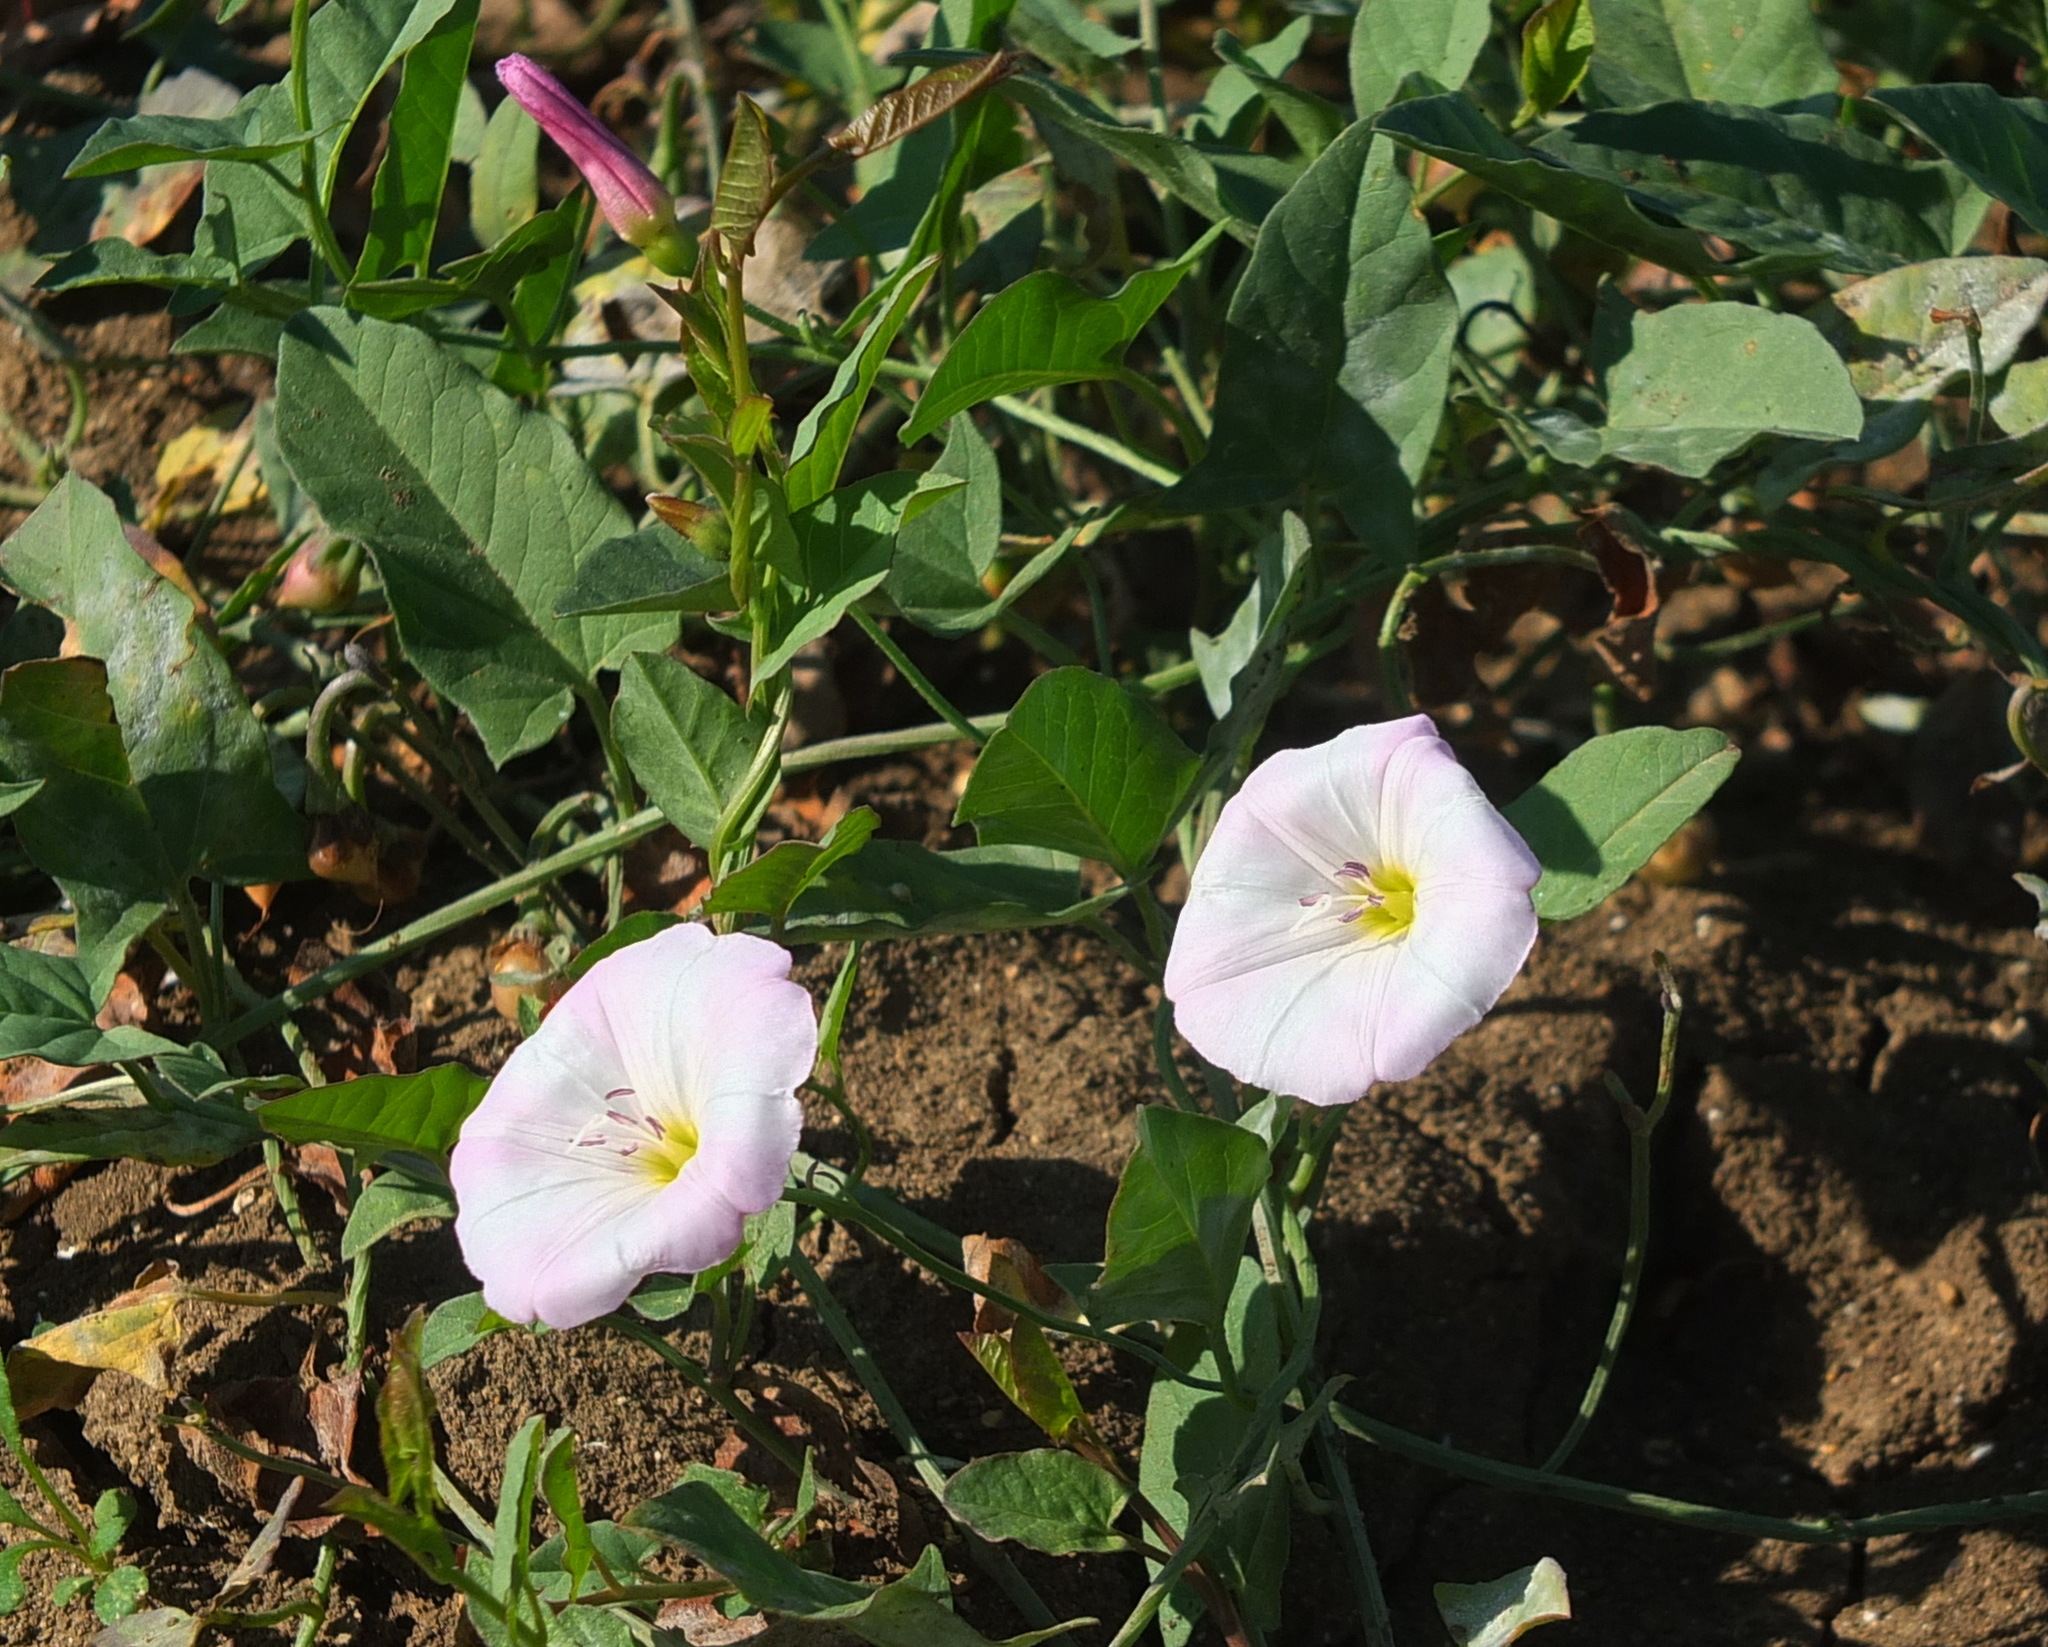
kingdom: Plantae
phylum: Tracheophyta
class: Magnoliopsida
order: Solanales
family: Convolvulaceae
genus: Convolvulus
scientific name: Convolvulus arvensis
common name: Field bindweed
